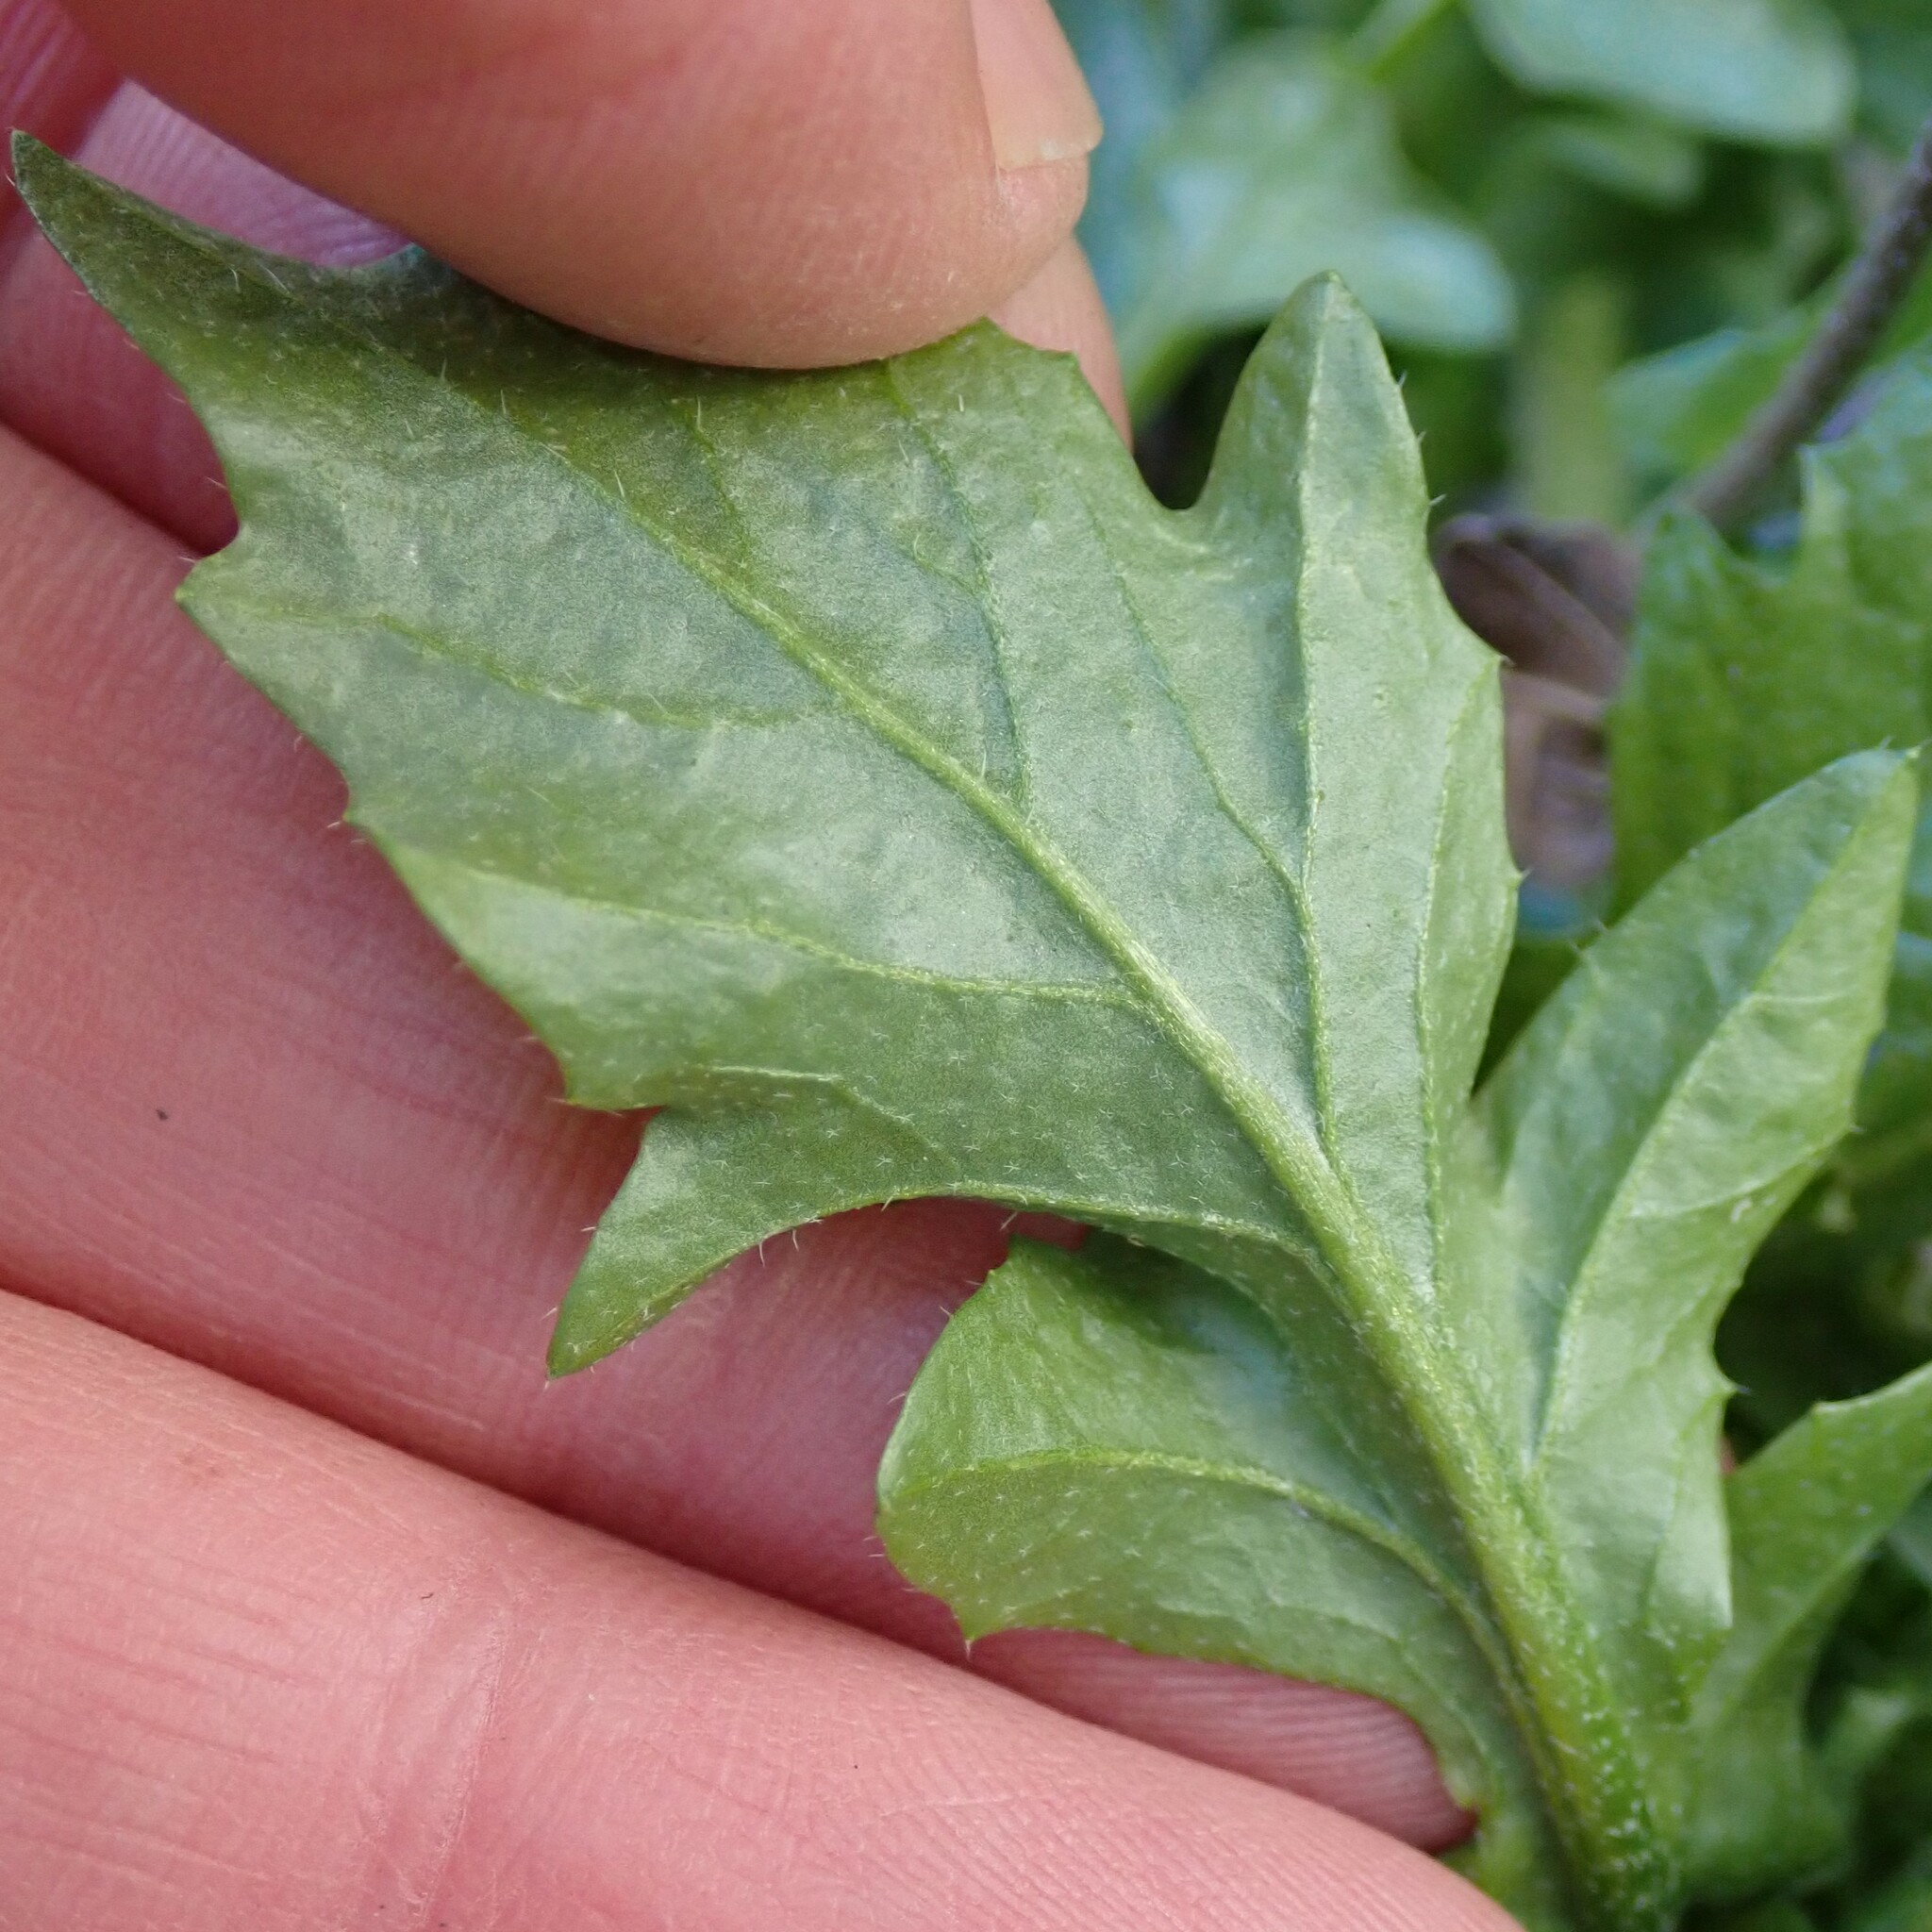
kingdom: Plantae
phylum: Tracheophyta
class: Magnoliopsida
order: Brassicales
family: Brassicaceae
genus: Capsella
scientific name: Capsella bursa-pastoris
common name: Shepherd's purse
